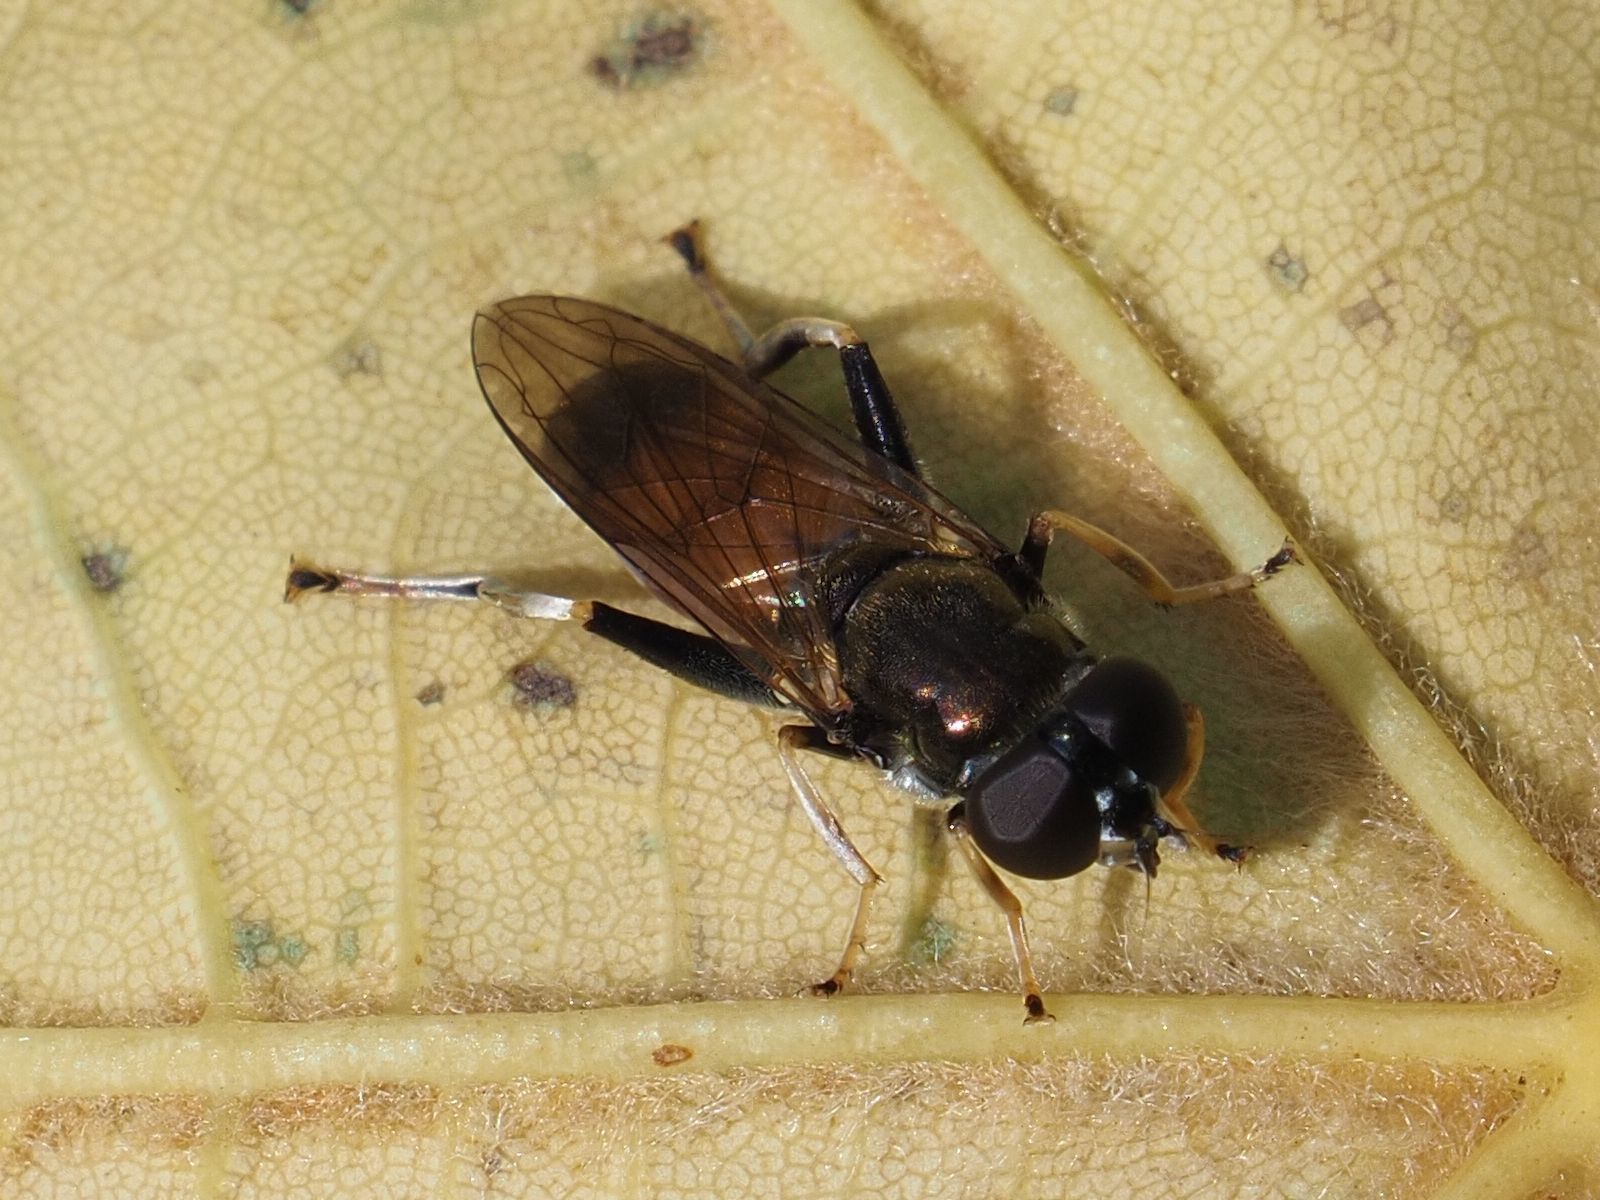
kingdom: Animalia
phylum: Arthropoda
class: Insecta
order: Diptera
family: Syrphidae
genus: Xylota
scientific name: Xylota segnis
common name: Brown-toed forest fly
